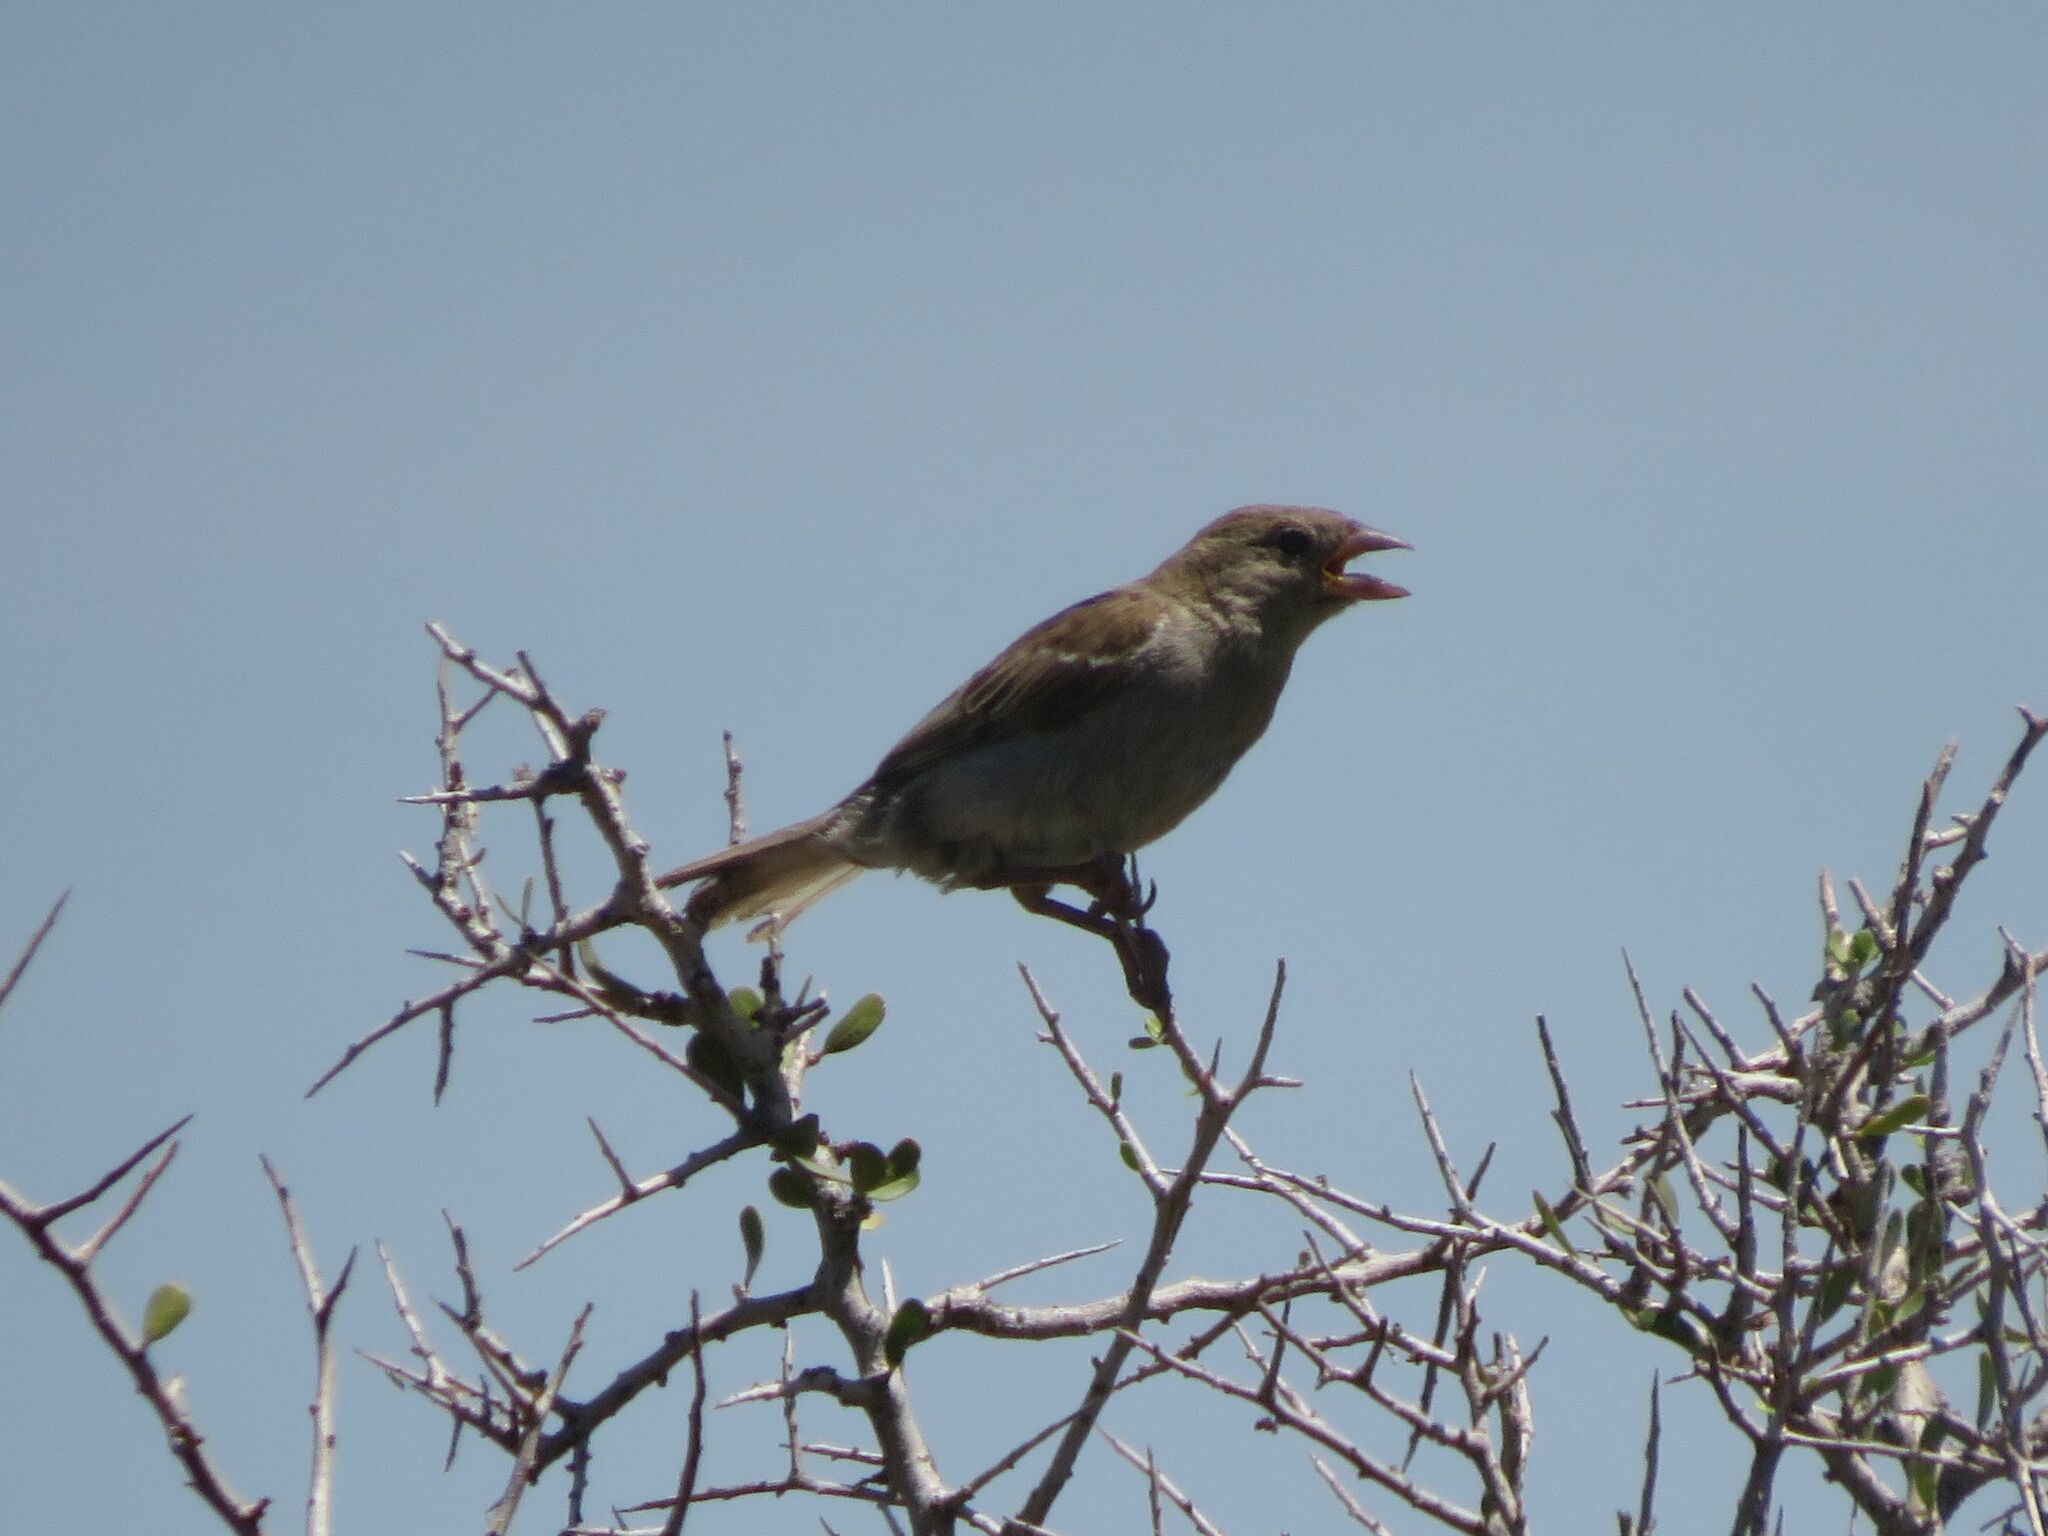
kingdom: Animalia
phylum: Chordata
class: Aves
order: Passeriformes
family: Passeridae
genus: Passer
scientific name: Passer domesticus
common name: House sparrow
